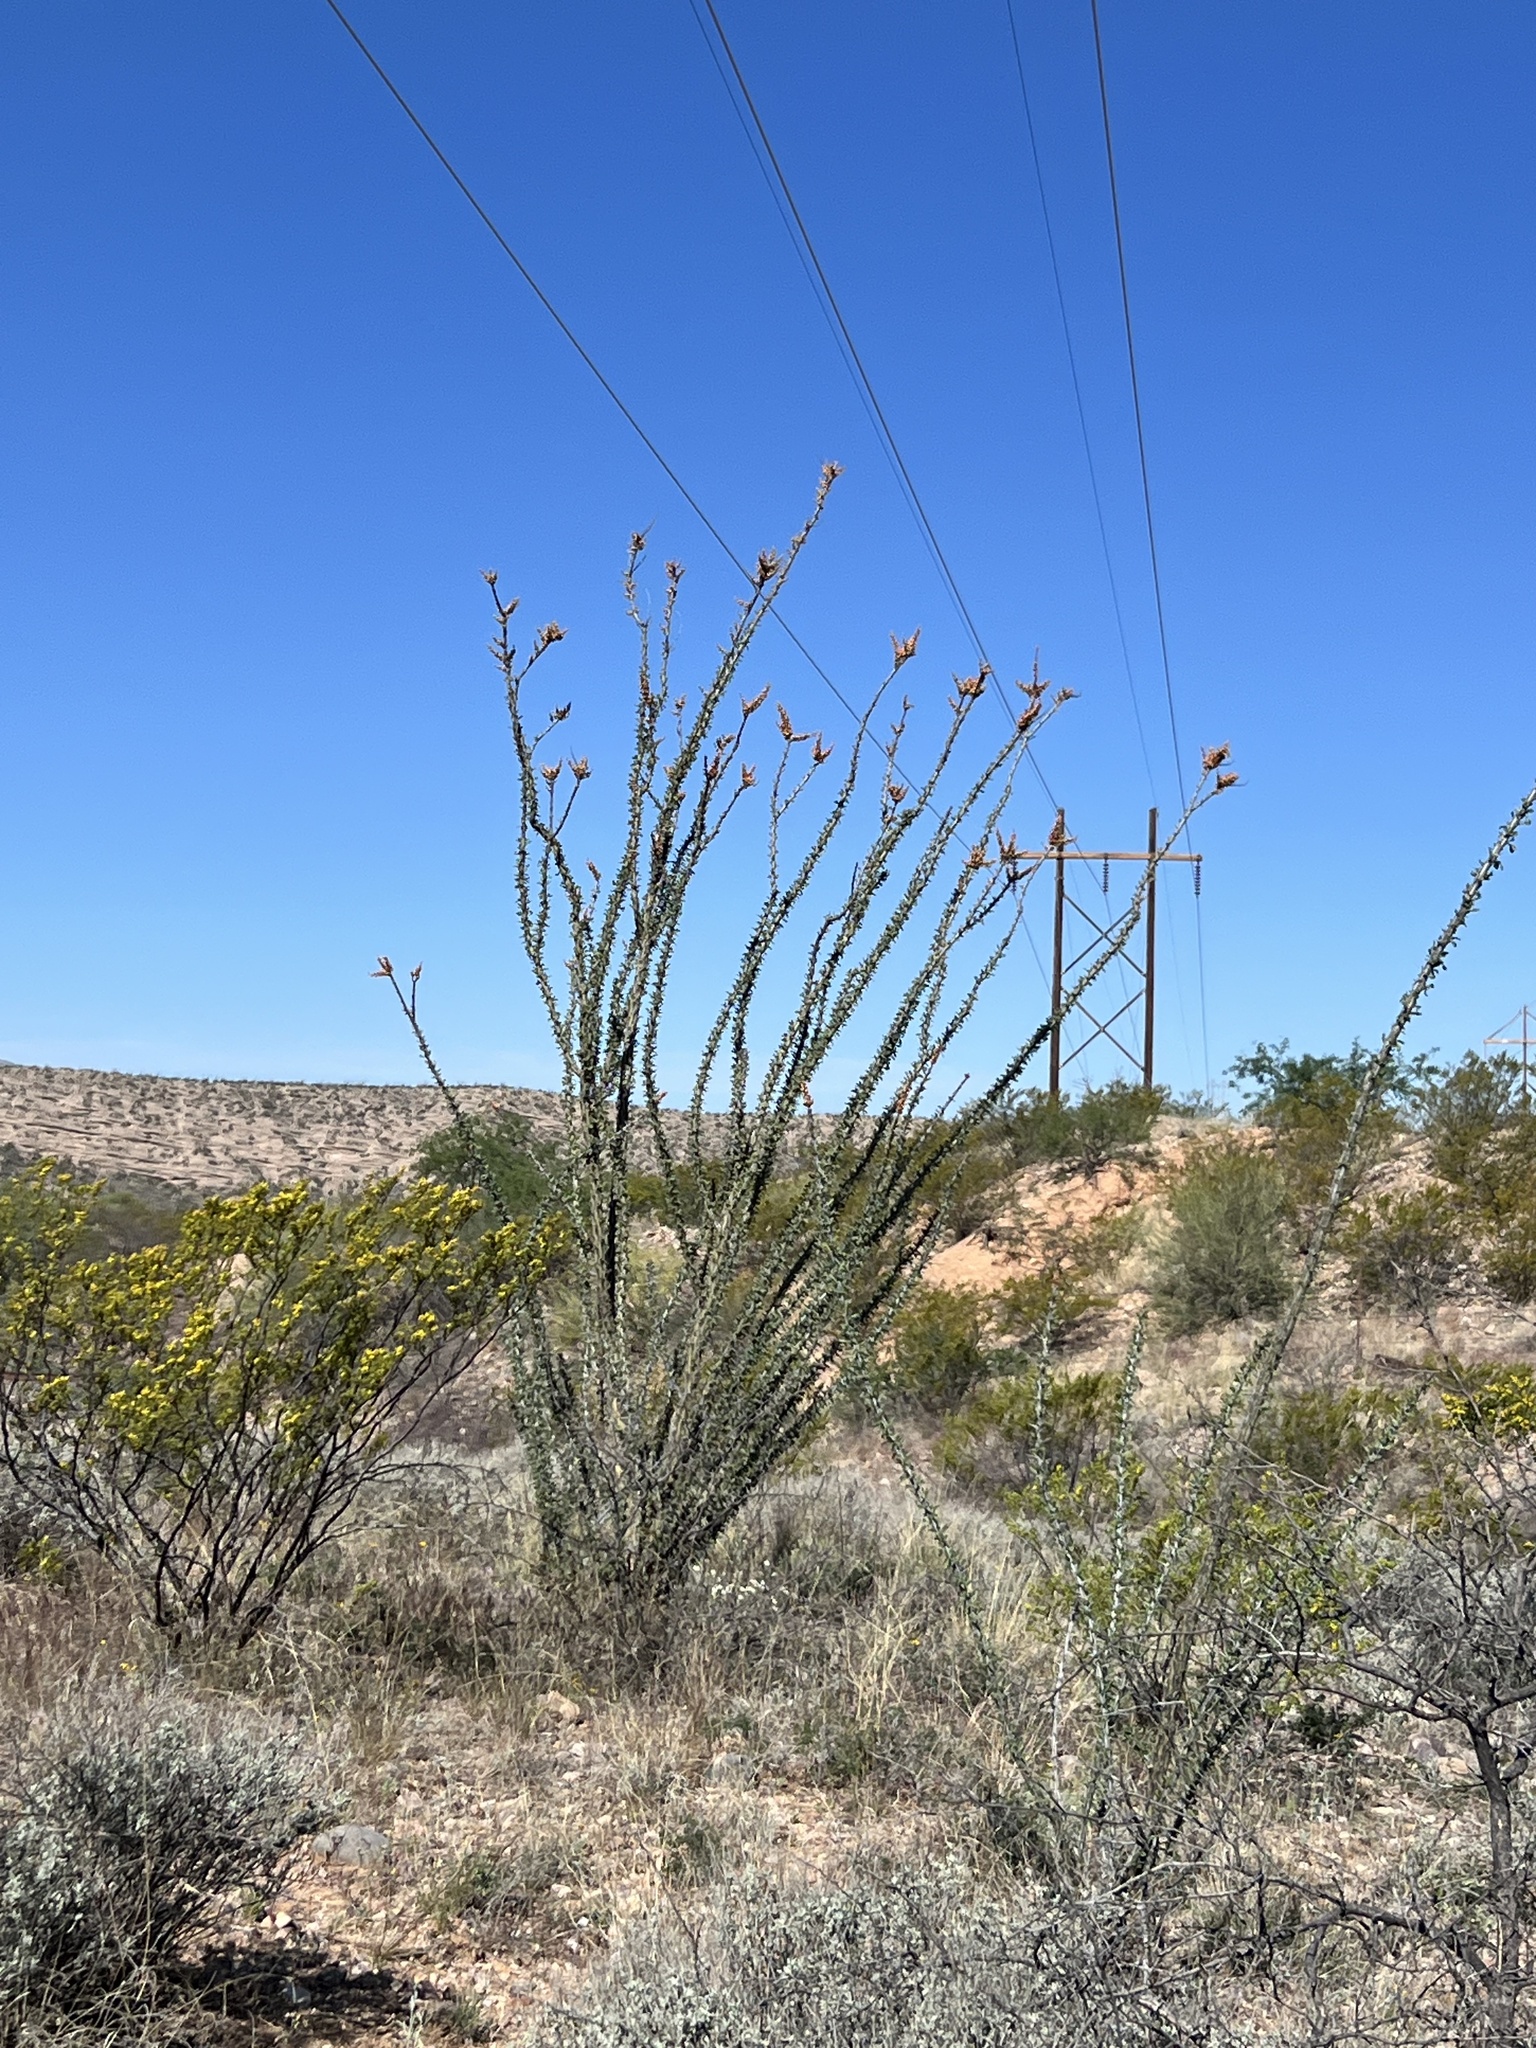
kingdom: Plantae
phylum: Tracheophyta
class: Magnoliopsida
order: Ericales
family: Fouquieriaceae
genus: Fouquieria
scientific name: Fouquieria splendens
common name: Vine-cactus
